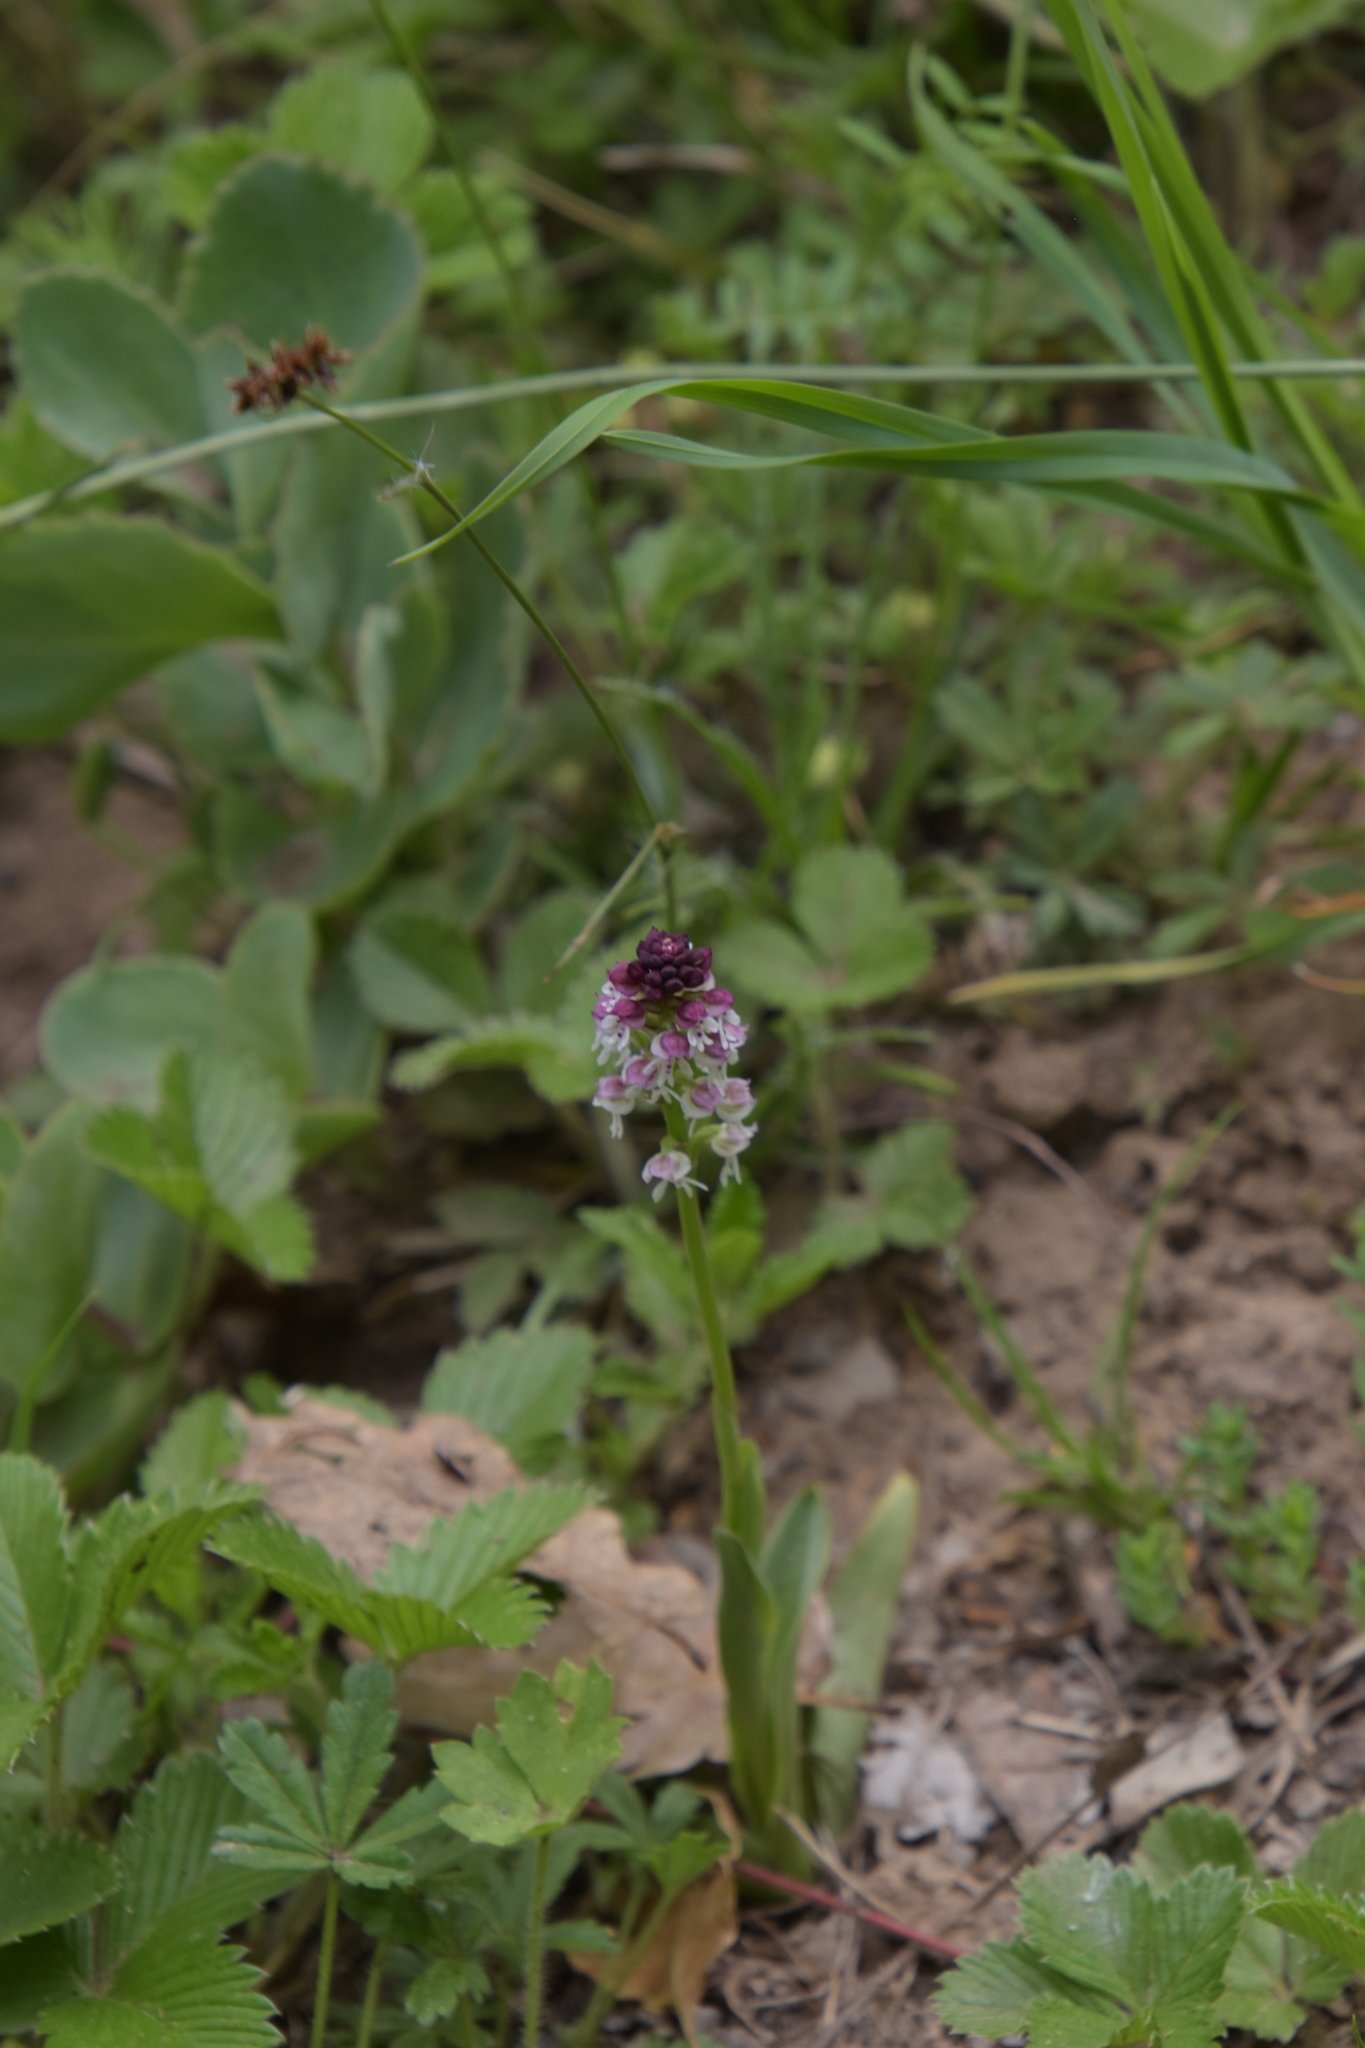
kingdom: Plantae
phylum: Tracheophyta
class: Liliopsida
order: Asparagales
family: Orchidaceae
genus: Neotinea
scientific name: Neotinea ustulata
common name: Burnt orchid
